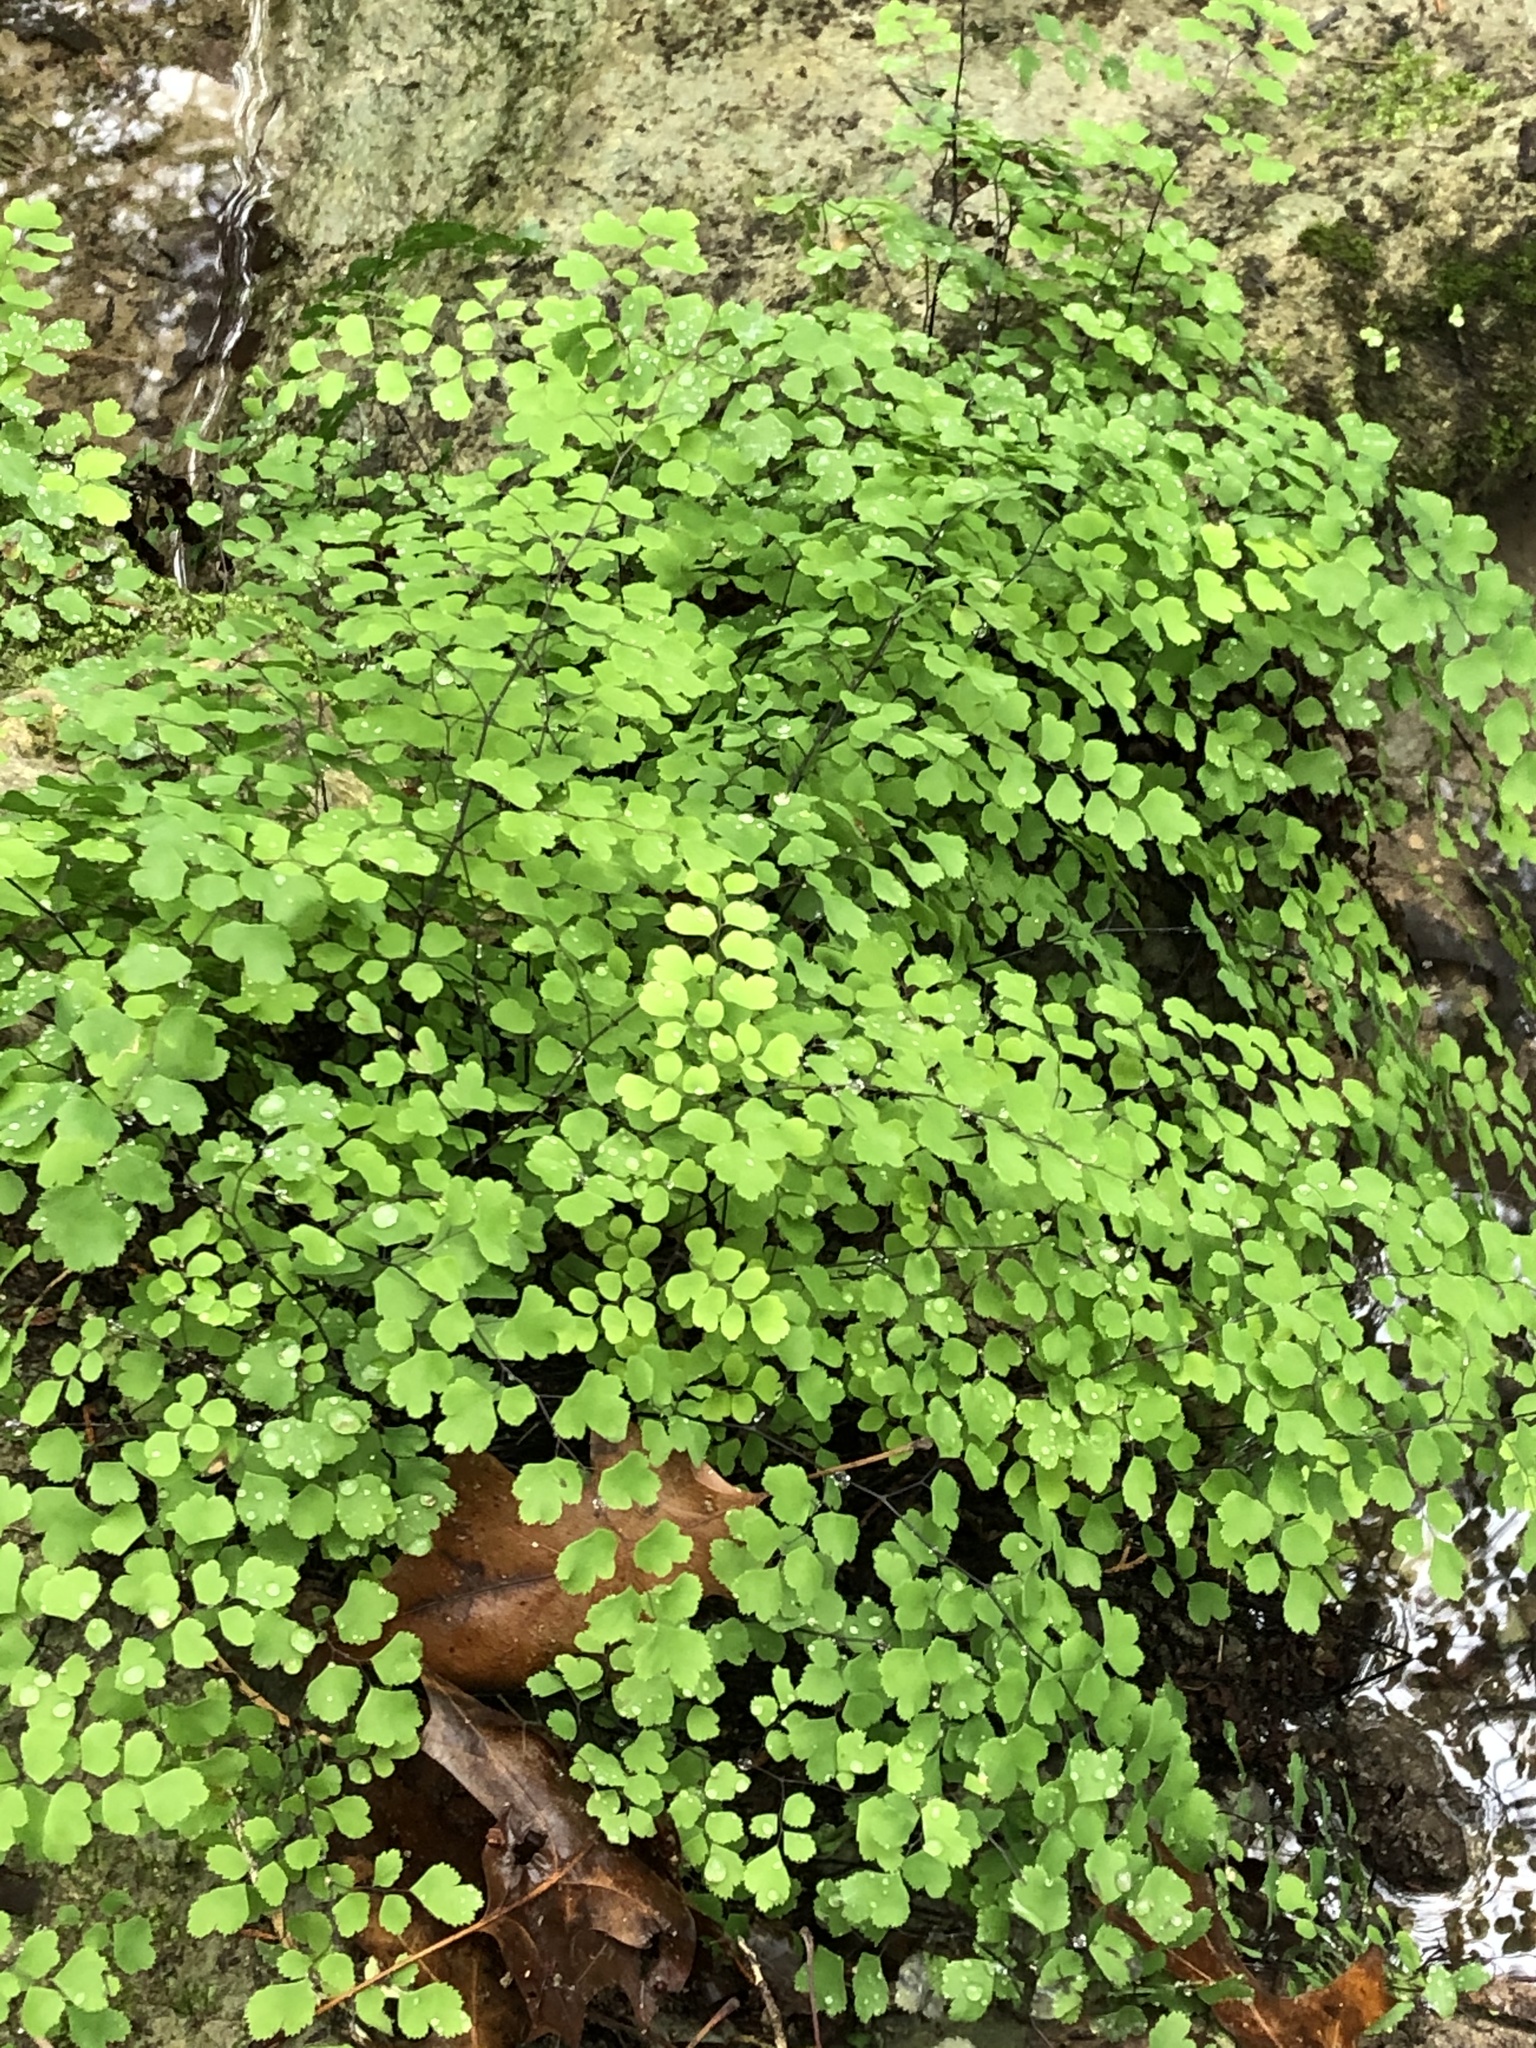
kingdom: Plantae
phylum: Tracheophyta
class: Polypodiopsida
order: Polypodiales
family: Pteridaceae
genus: Adiantum
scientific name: Adiantum capillus-veneris
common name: Maidenhair fern
